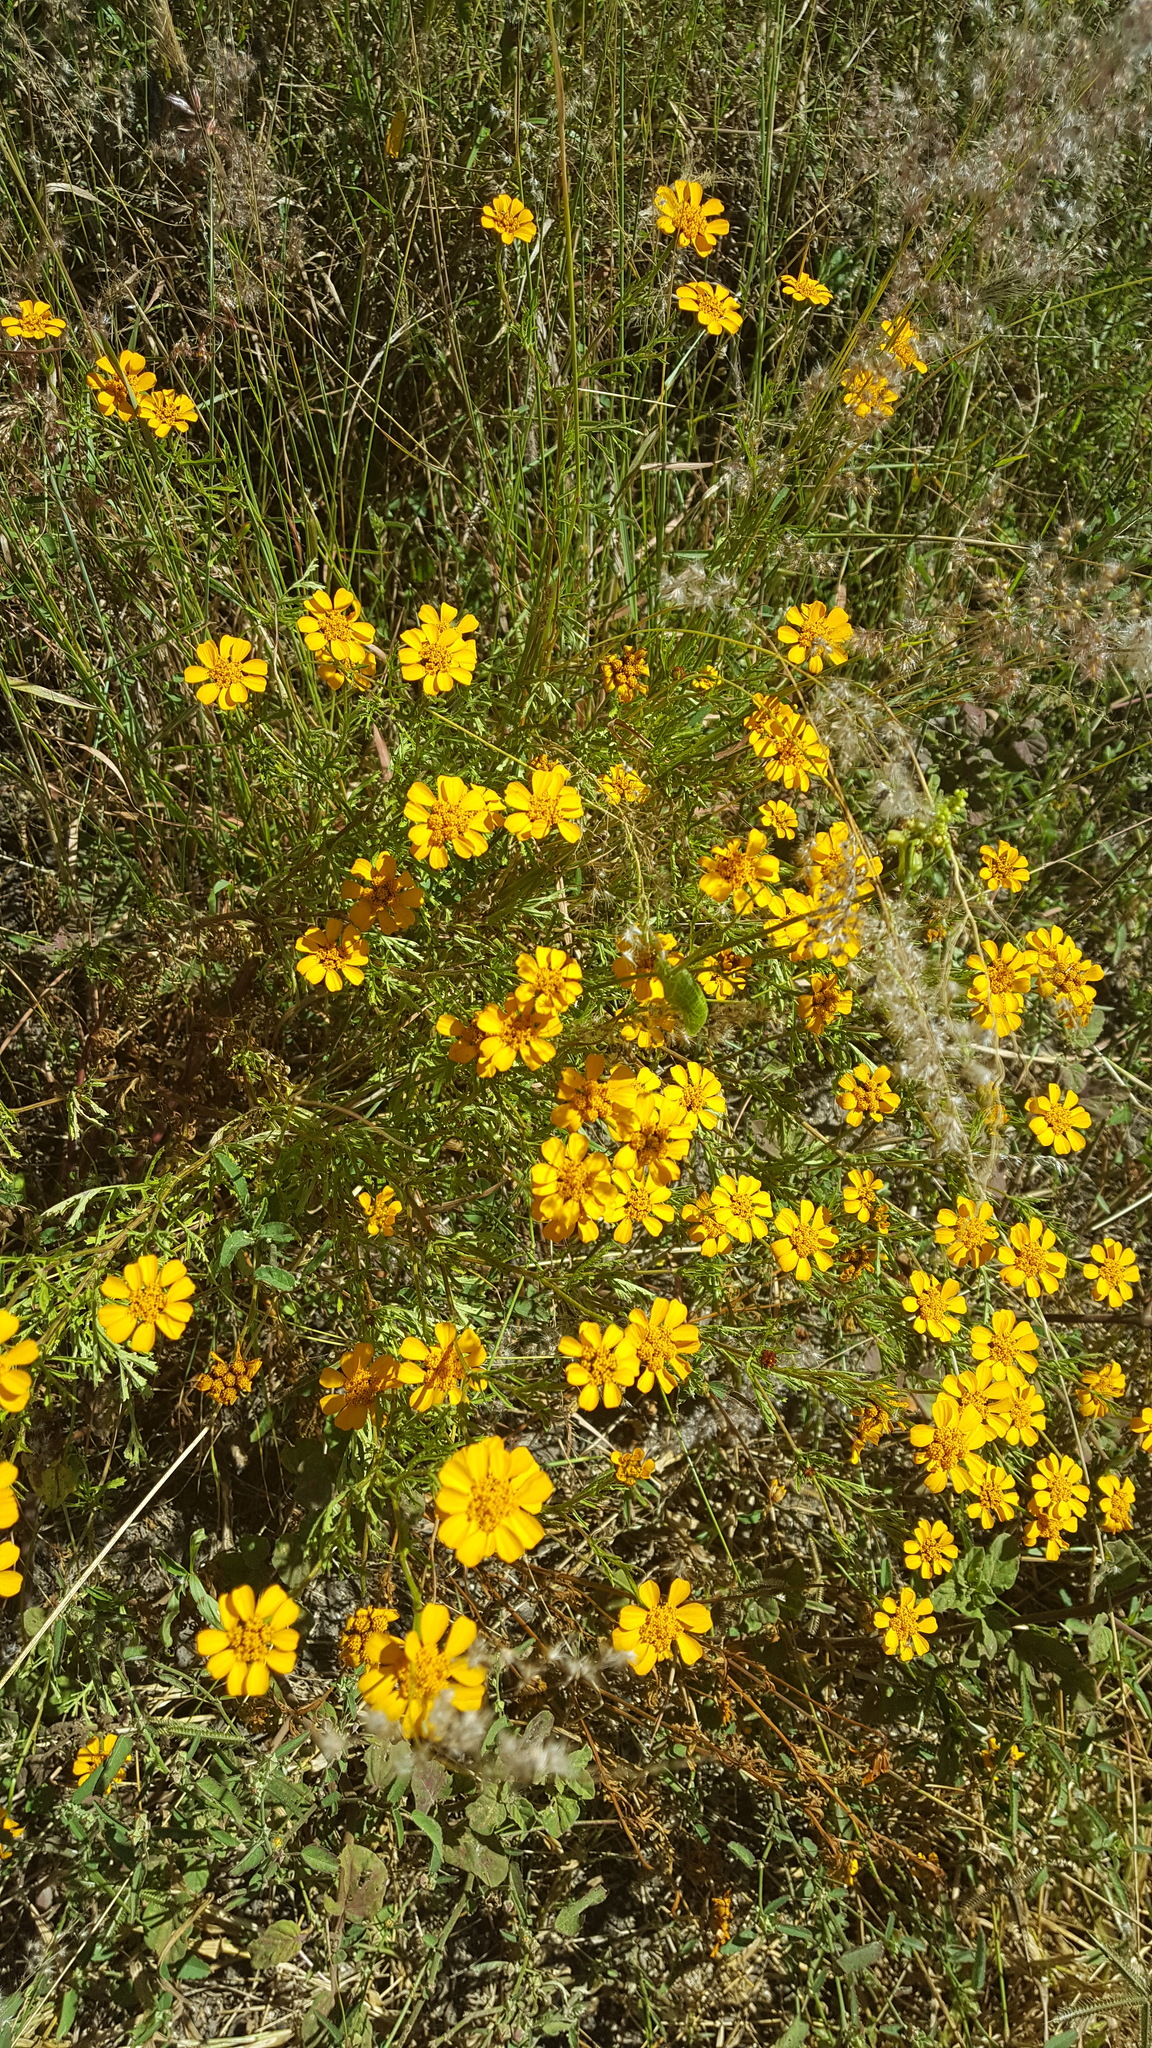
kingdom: Plantae
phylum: Tracheophyta
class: Magnoliopsida
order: Asterales
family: Asteraceae
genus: Dyssodia
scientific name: Dyssodia decipiens
